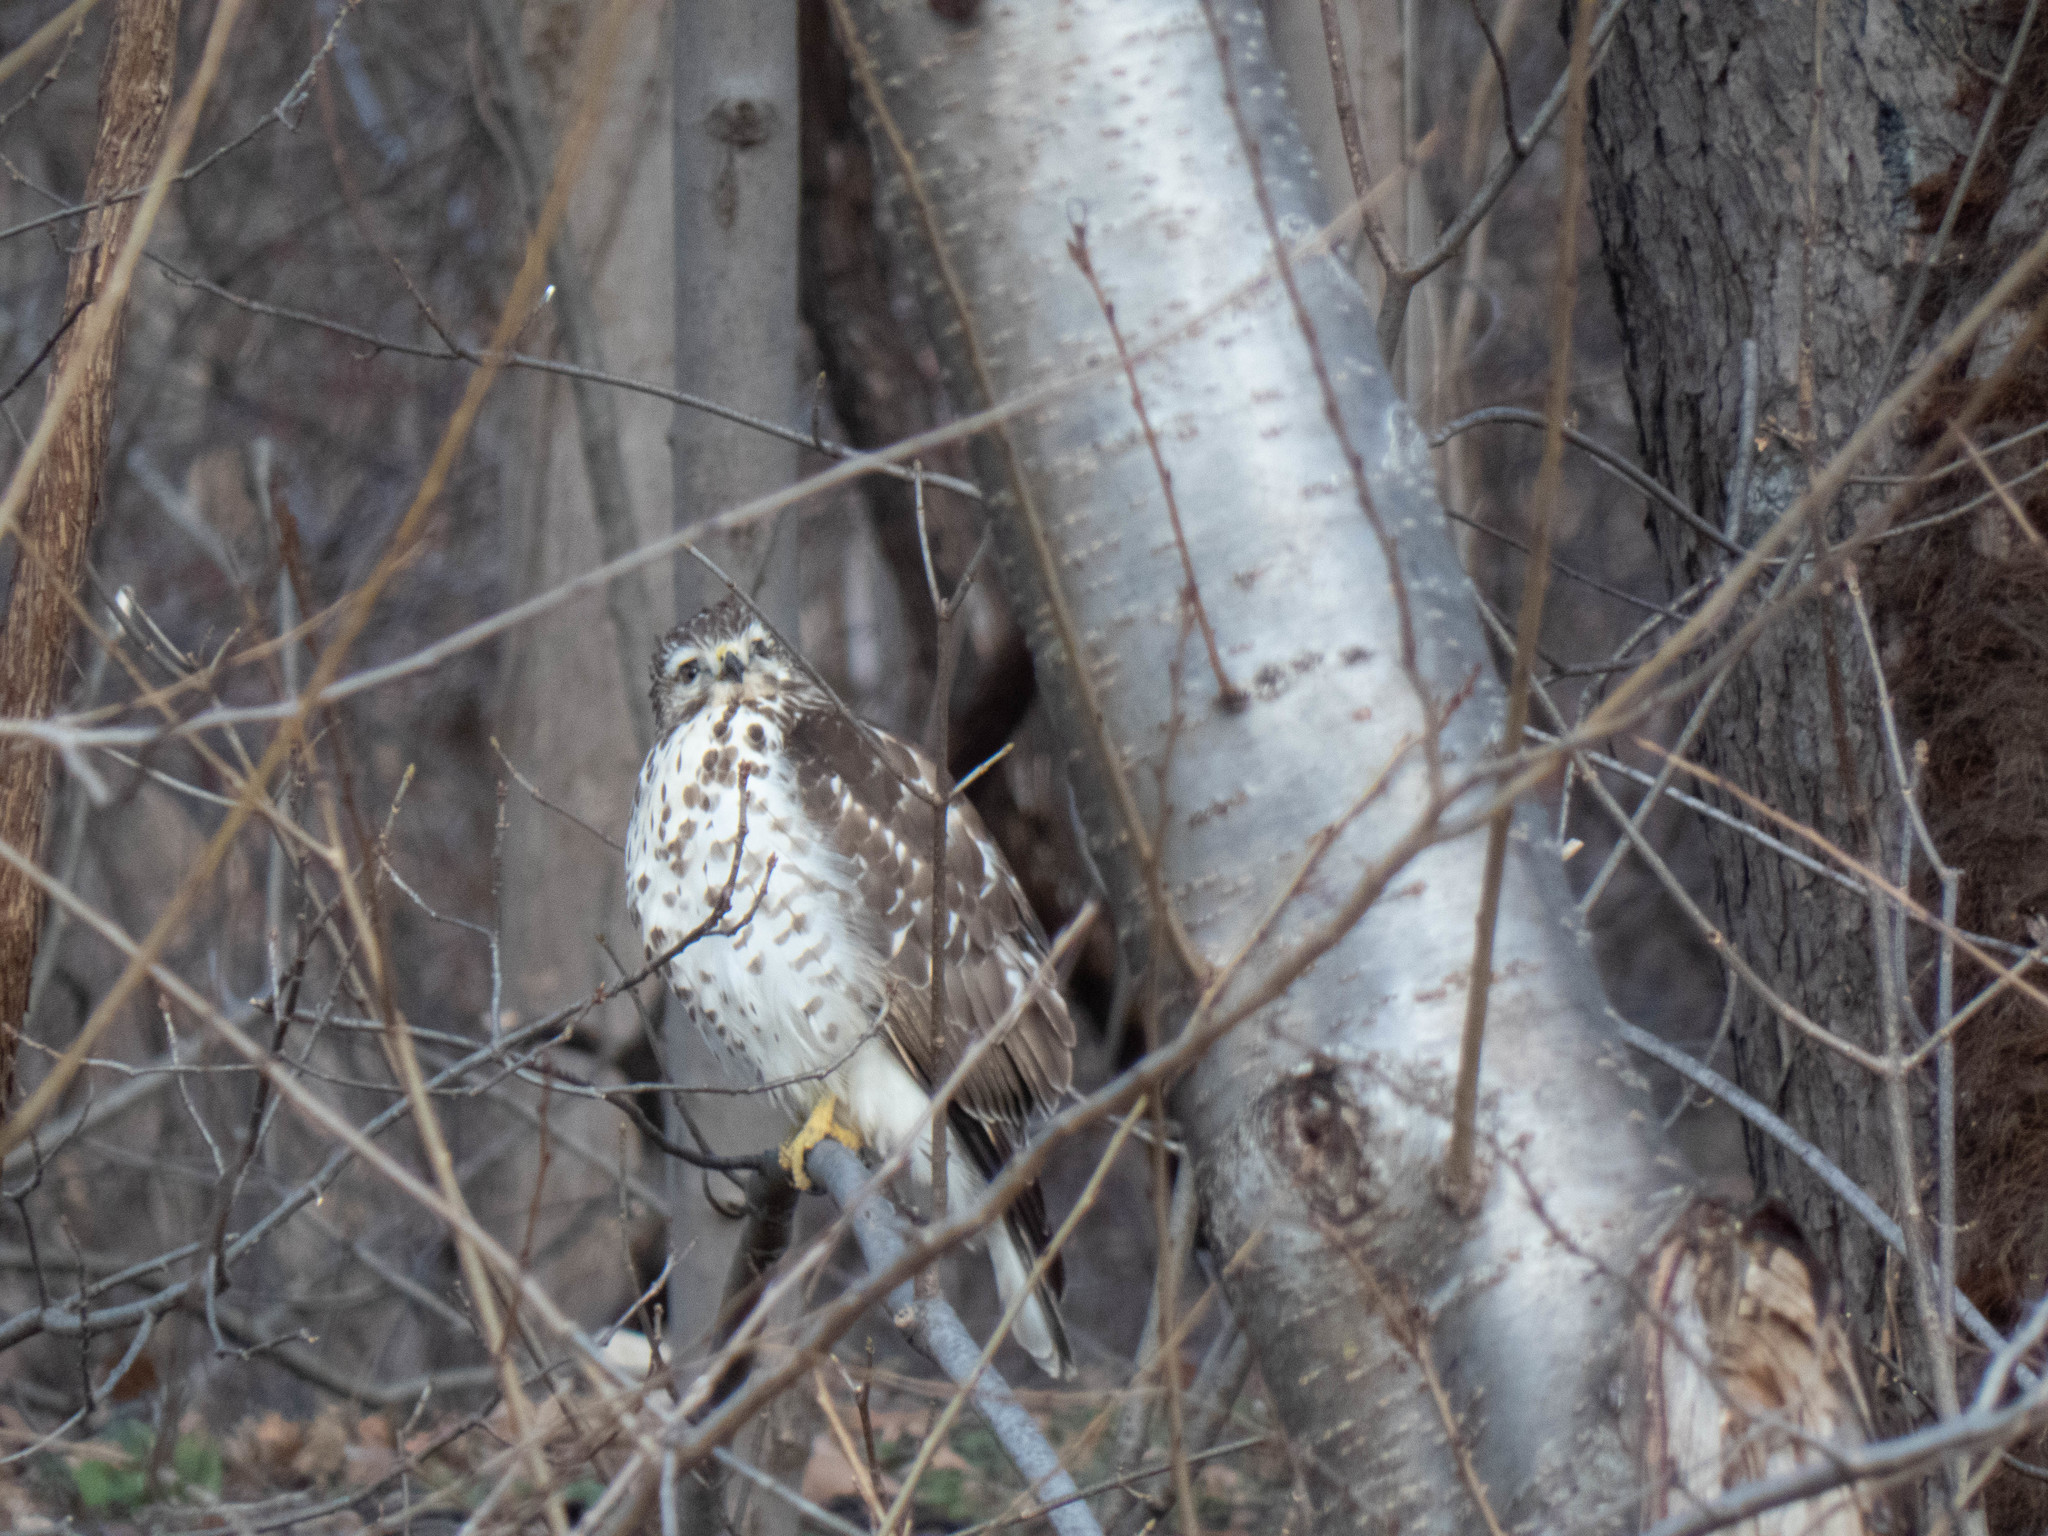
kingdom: Animalia
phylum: Chordata
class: Aves
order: Accipitriformes
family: Accipitridae
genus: Buteo
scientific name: Buteo lineatus
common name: Red-shouldered hawk
